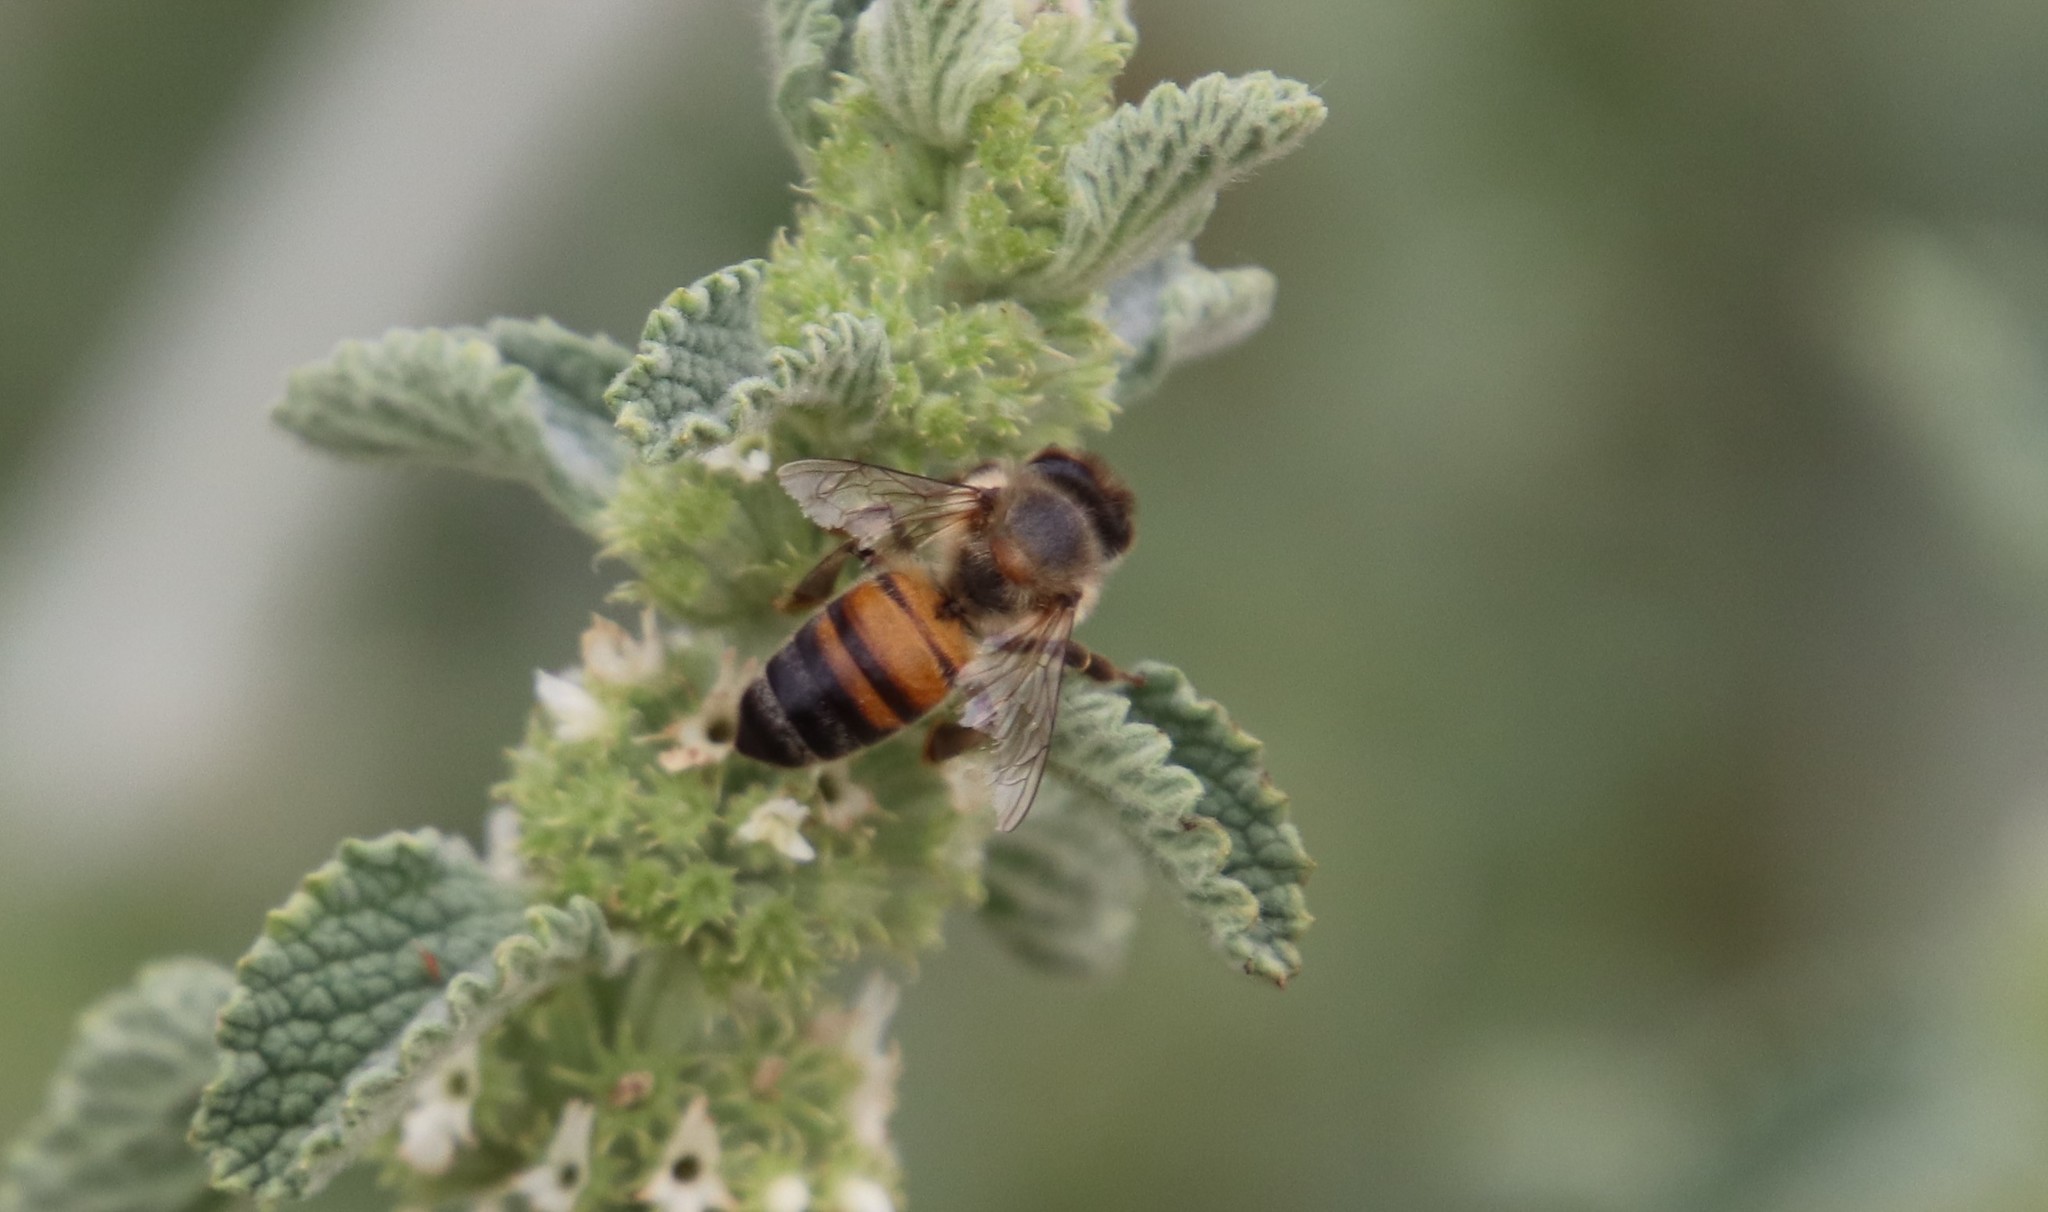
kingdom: Animalia
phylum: Arthropoda
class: Insecta
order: Hymenoptera
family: Apidae
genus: Apis
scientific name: Apis mellifera
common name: Honey bee
